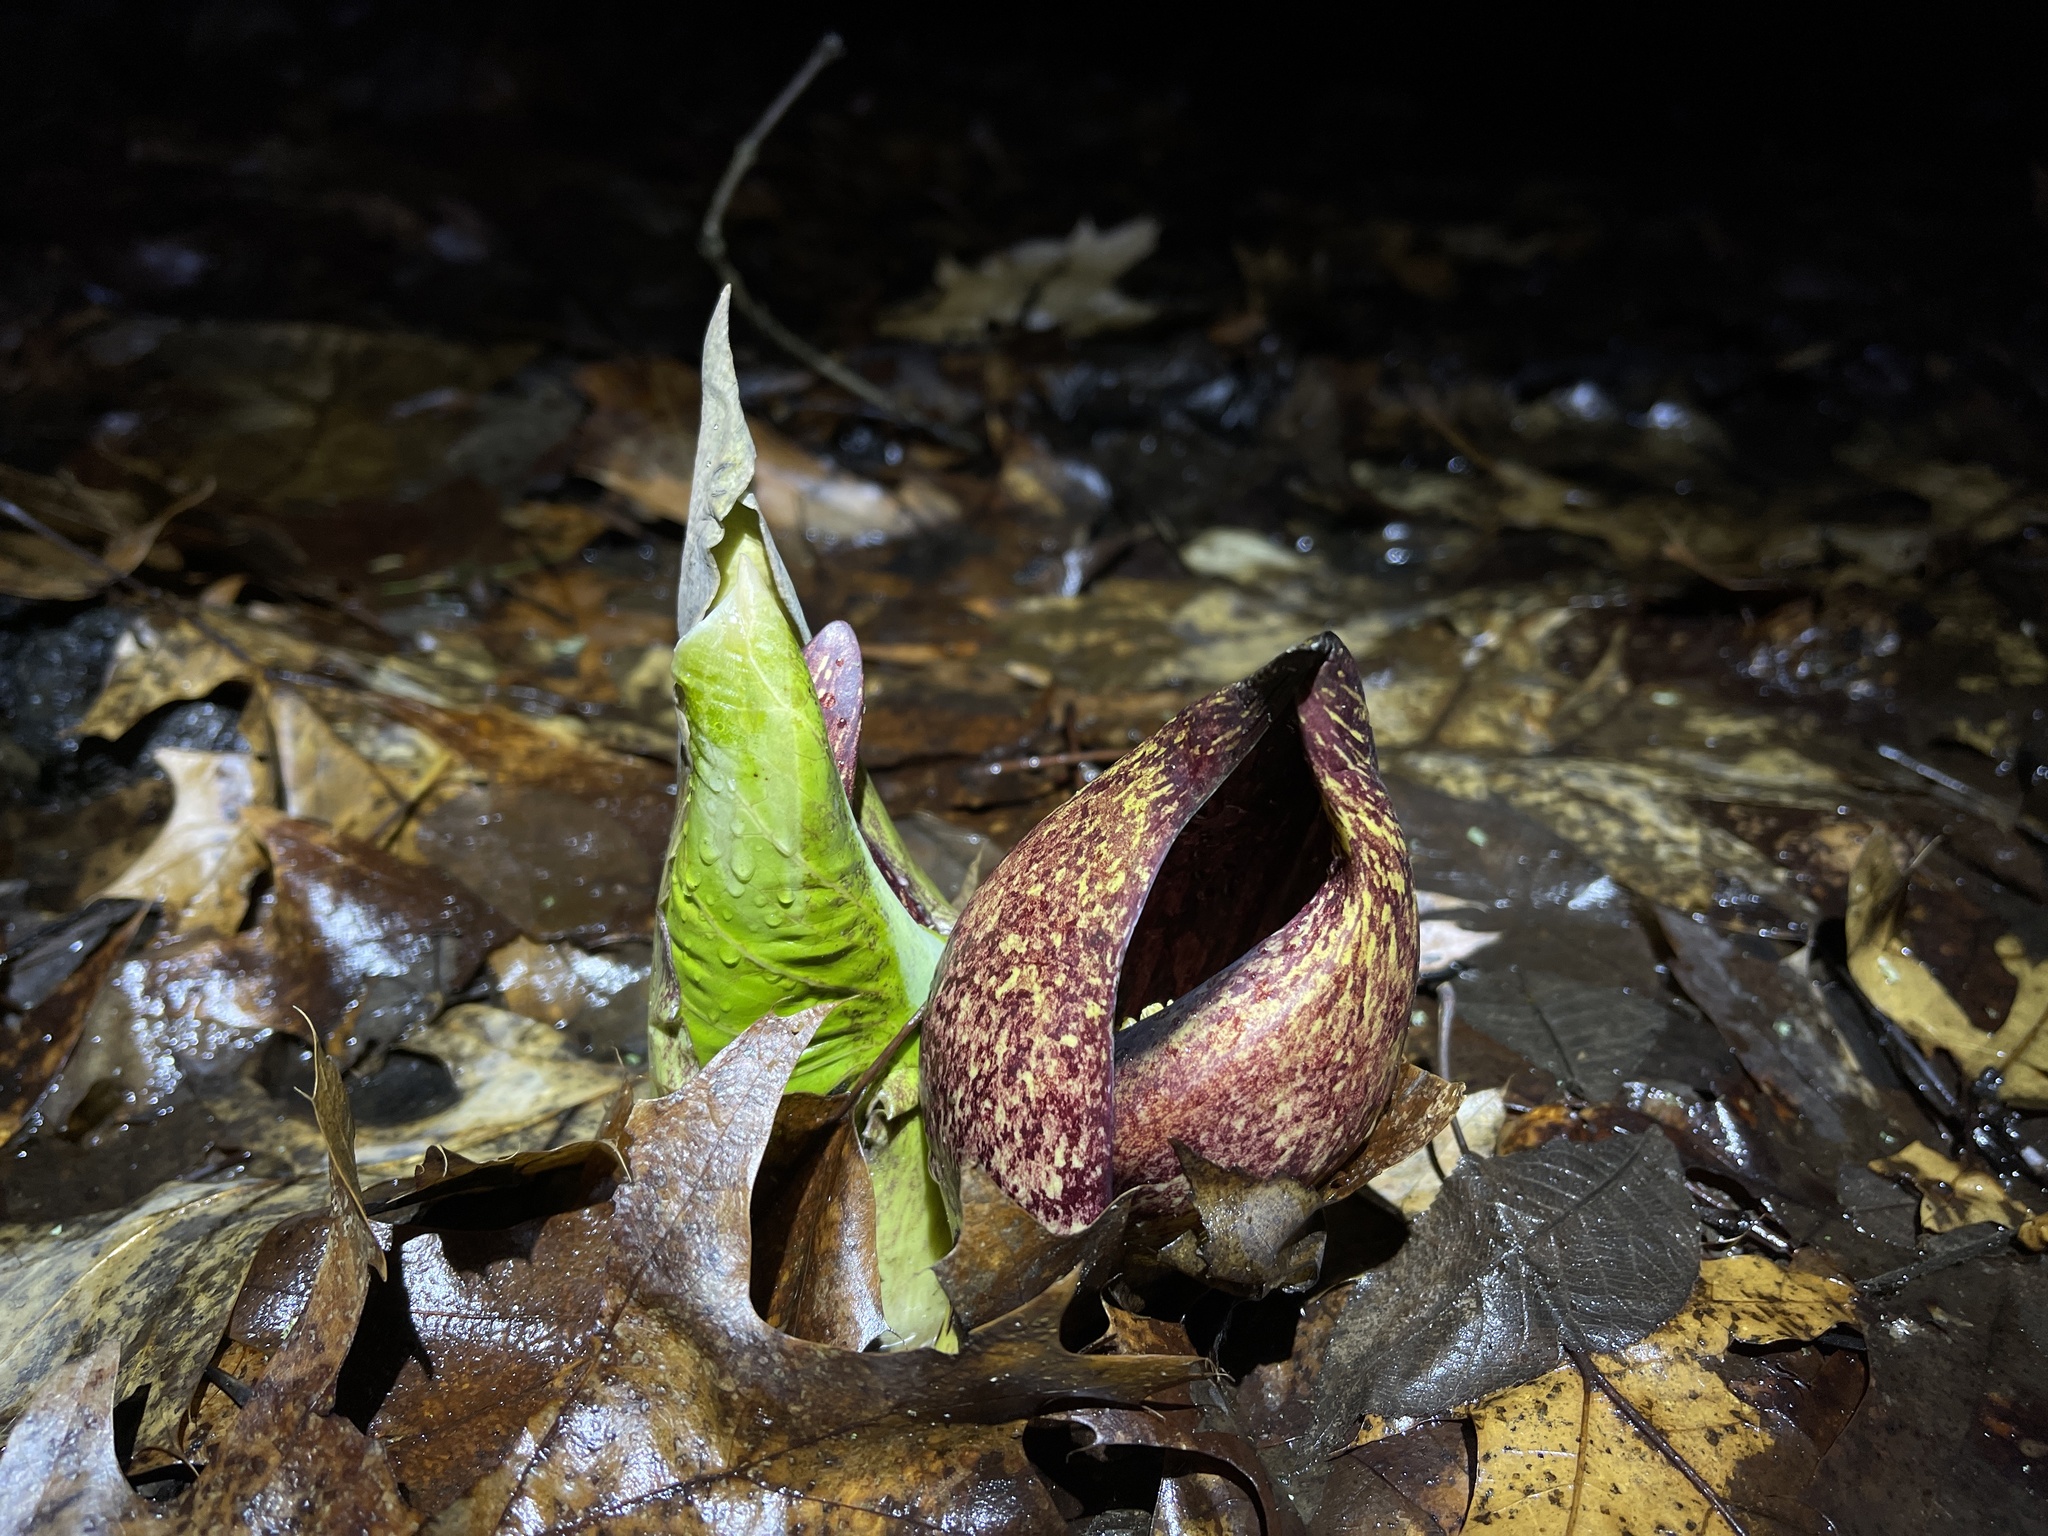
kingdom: Plantae
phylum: Tracheophyta
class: Liliopsida
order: Alismatales
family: Araceae
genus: Symplocarpus
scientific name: Symplocarpus foetidus
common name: Eastern skunk cabbage
